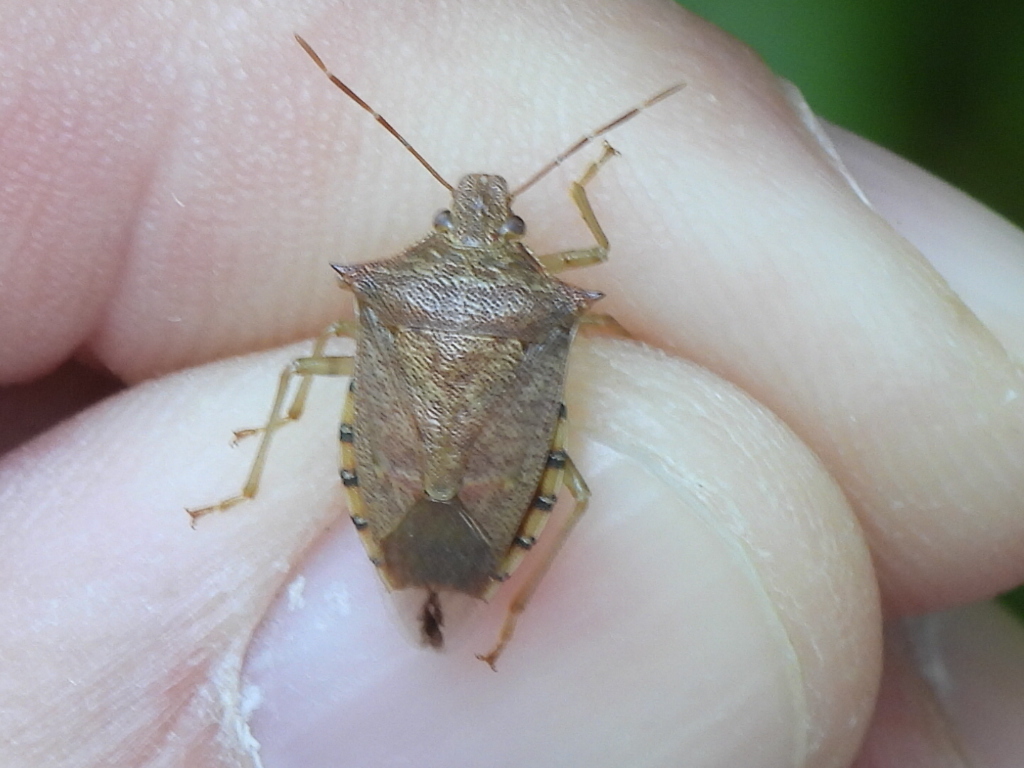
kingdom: Animalia
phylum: Arthropoda
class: Insecta
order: Hemiptera
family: Pentatomidae
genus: Podisus
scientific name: Podisus maculiventris
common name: Spined soldier bug
